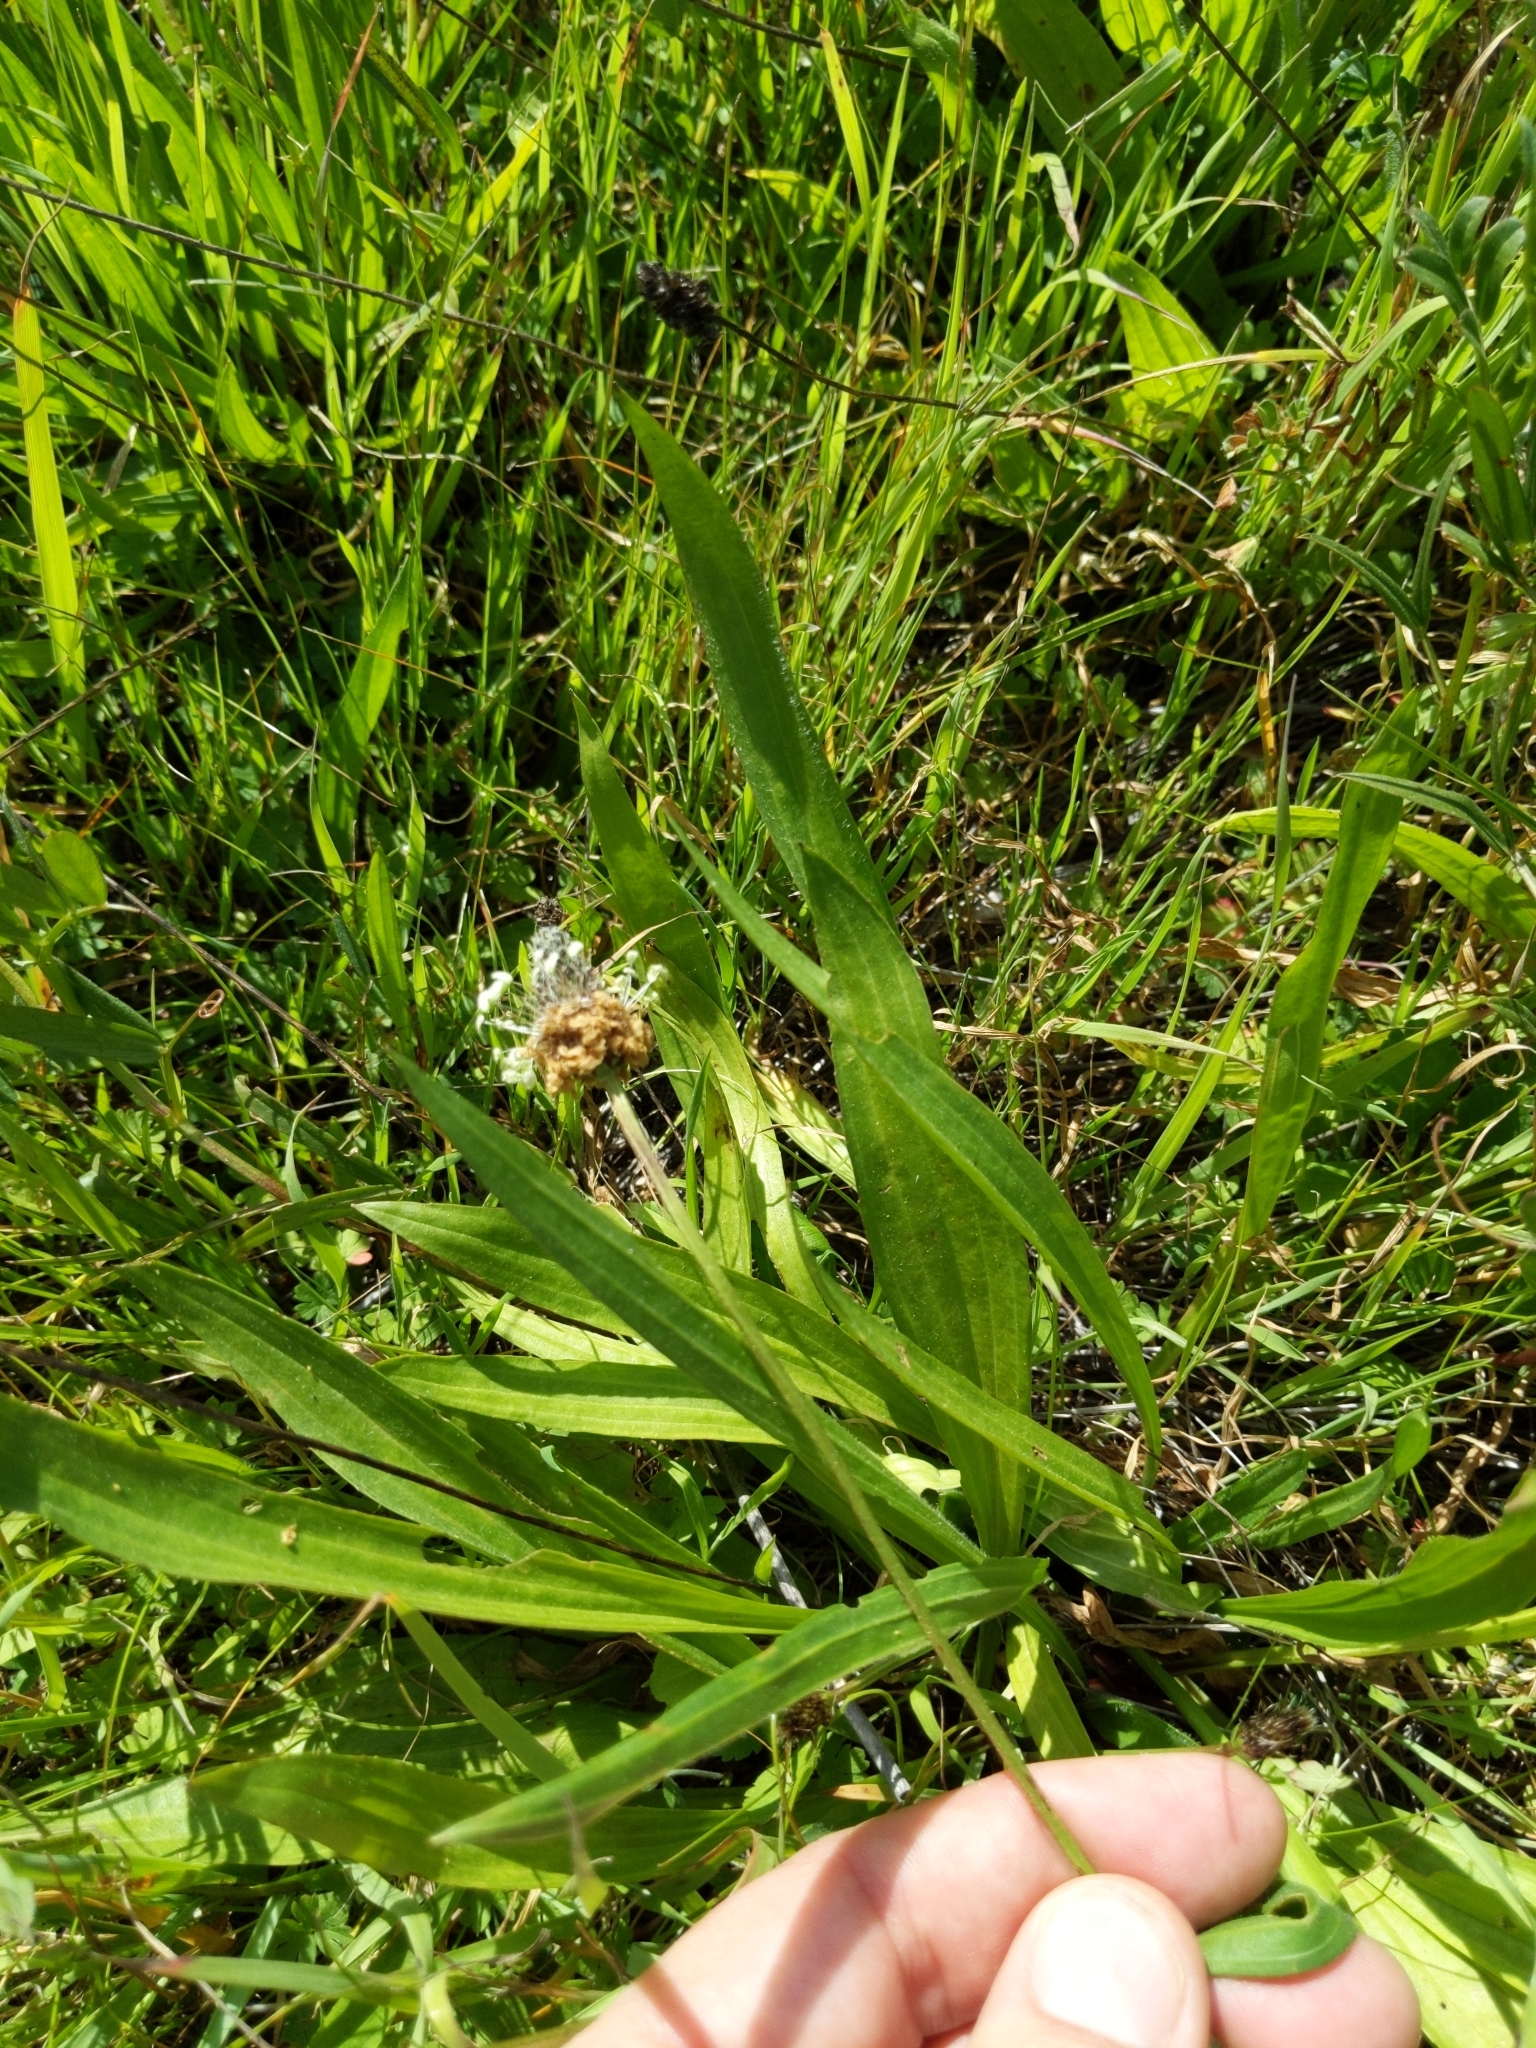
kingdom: Plantae
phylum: Tracheophyta
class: Magnoliopsida
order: Lamiales
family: Plantaginaceae
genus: Plantago
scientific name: Plantago lanceolata
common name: Ribwort plantain
